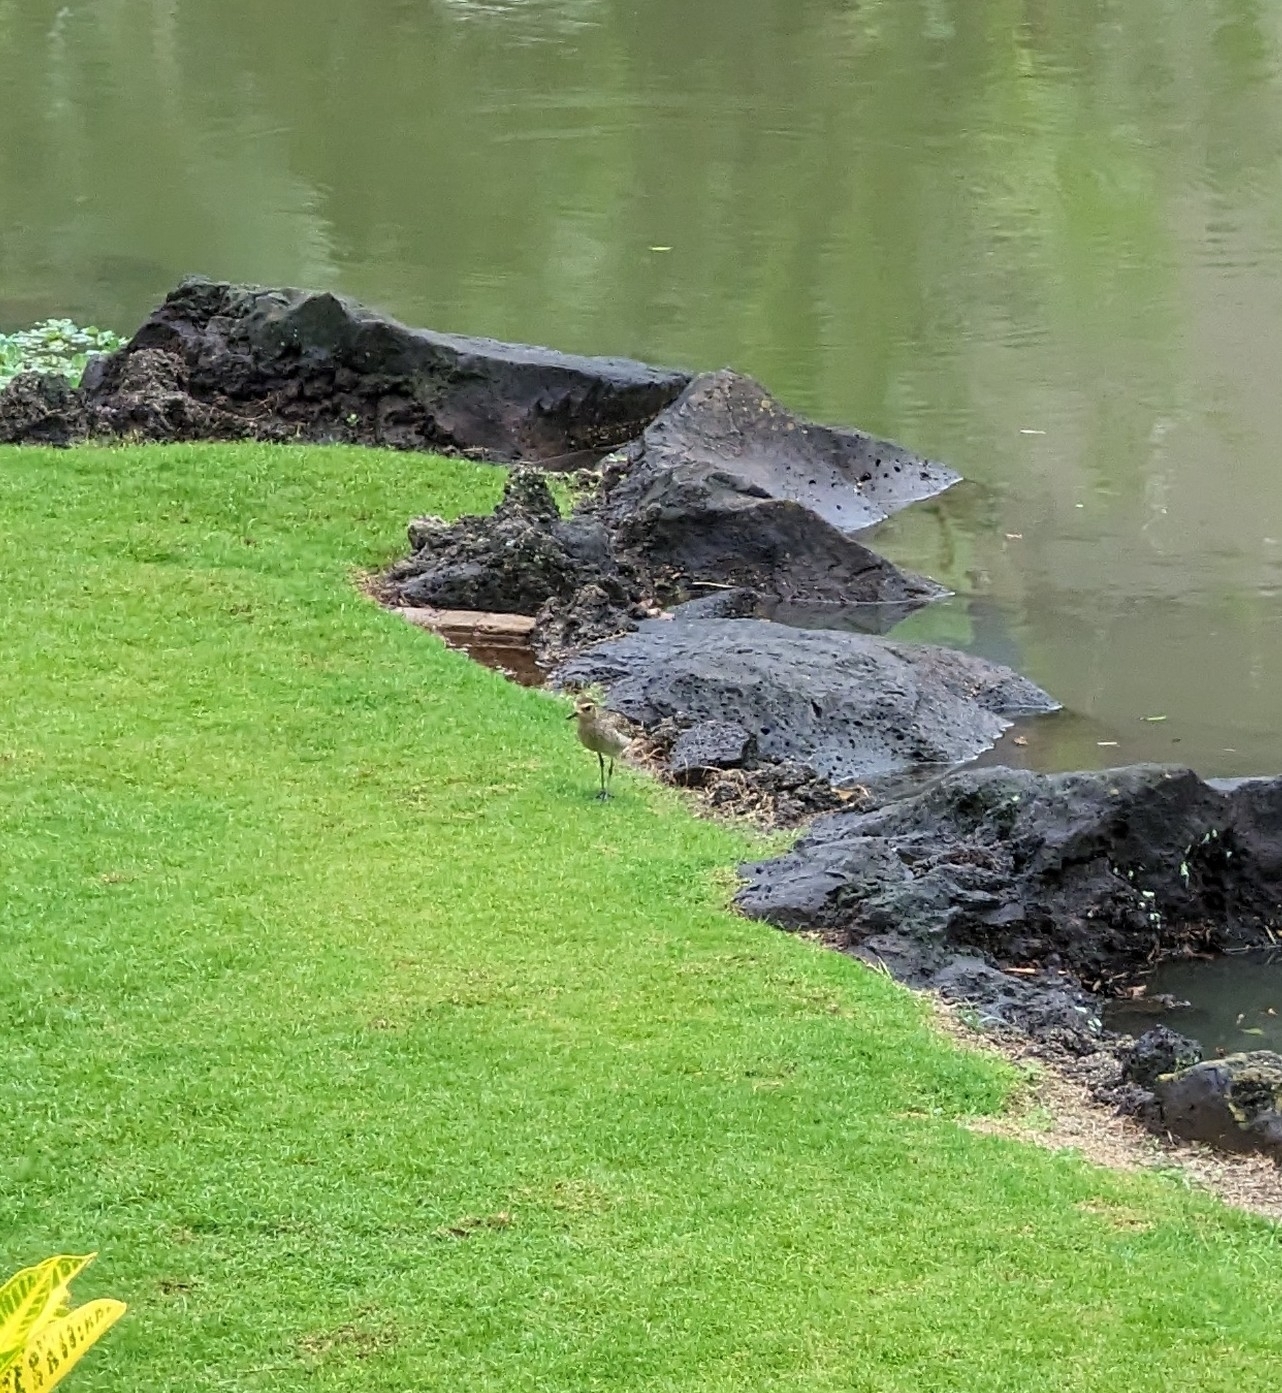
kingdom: Animalia
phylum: Chordata
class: Aves
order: Charadriiformes
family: Charadriidae
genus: Pluvialis
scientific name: Pluvialis fulva
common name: Pacific golden plover
